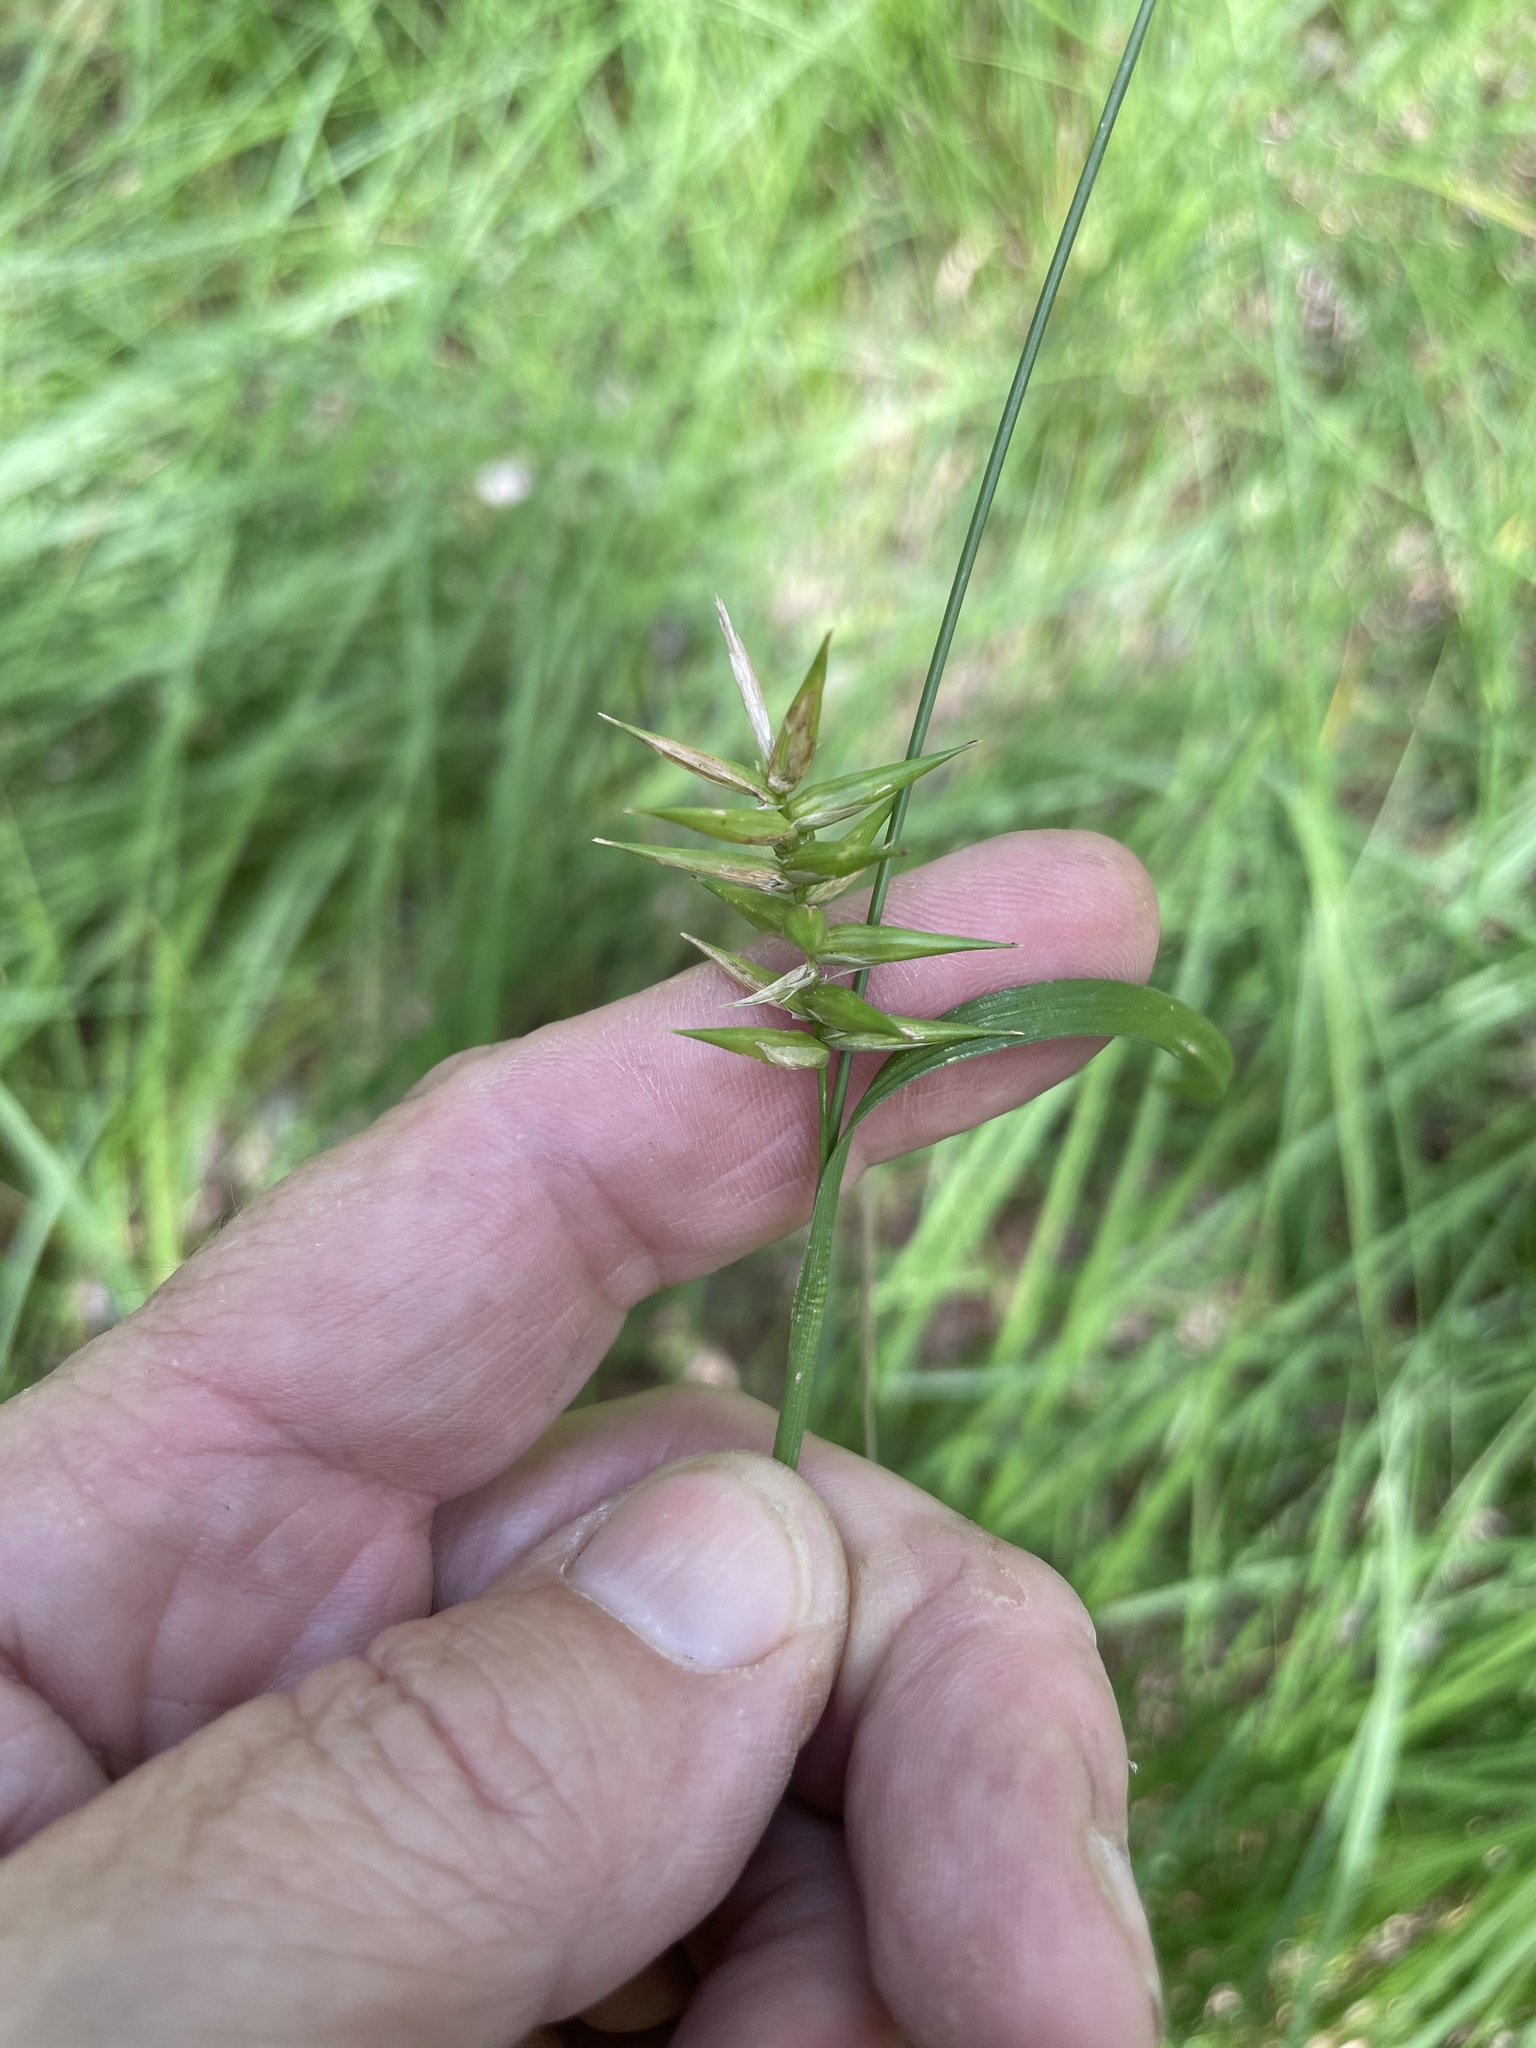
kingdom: Plantae
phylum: Tracheophyta
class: Liliopsida
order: Poales
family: Cyperaceae
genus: Carex
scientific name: Carex lonchocarpa
